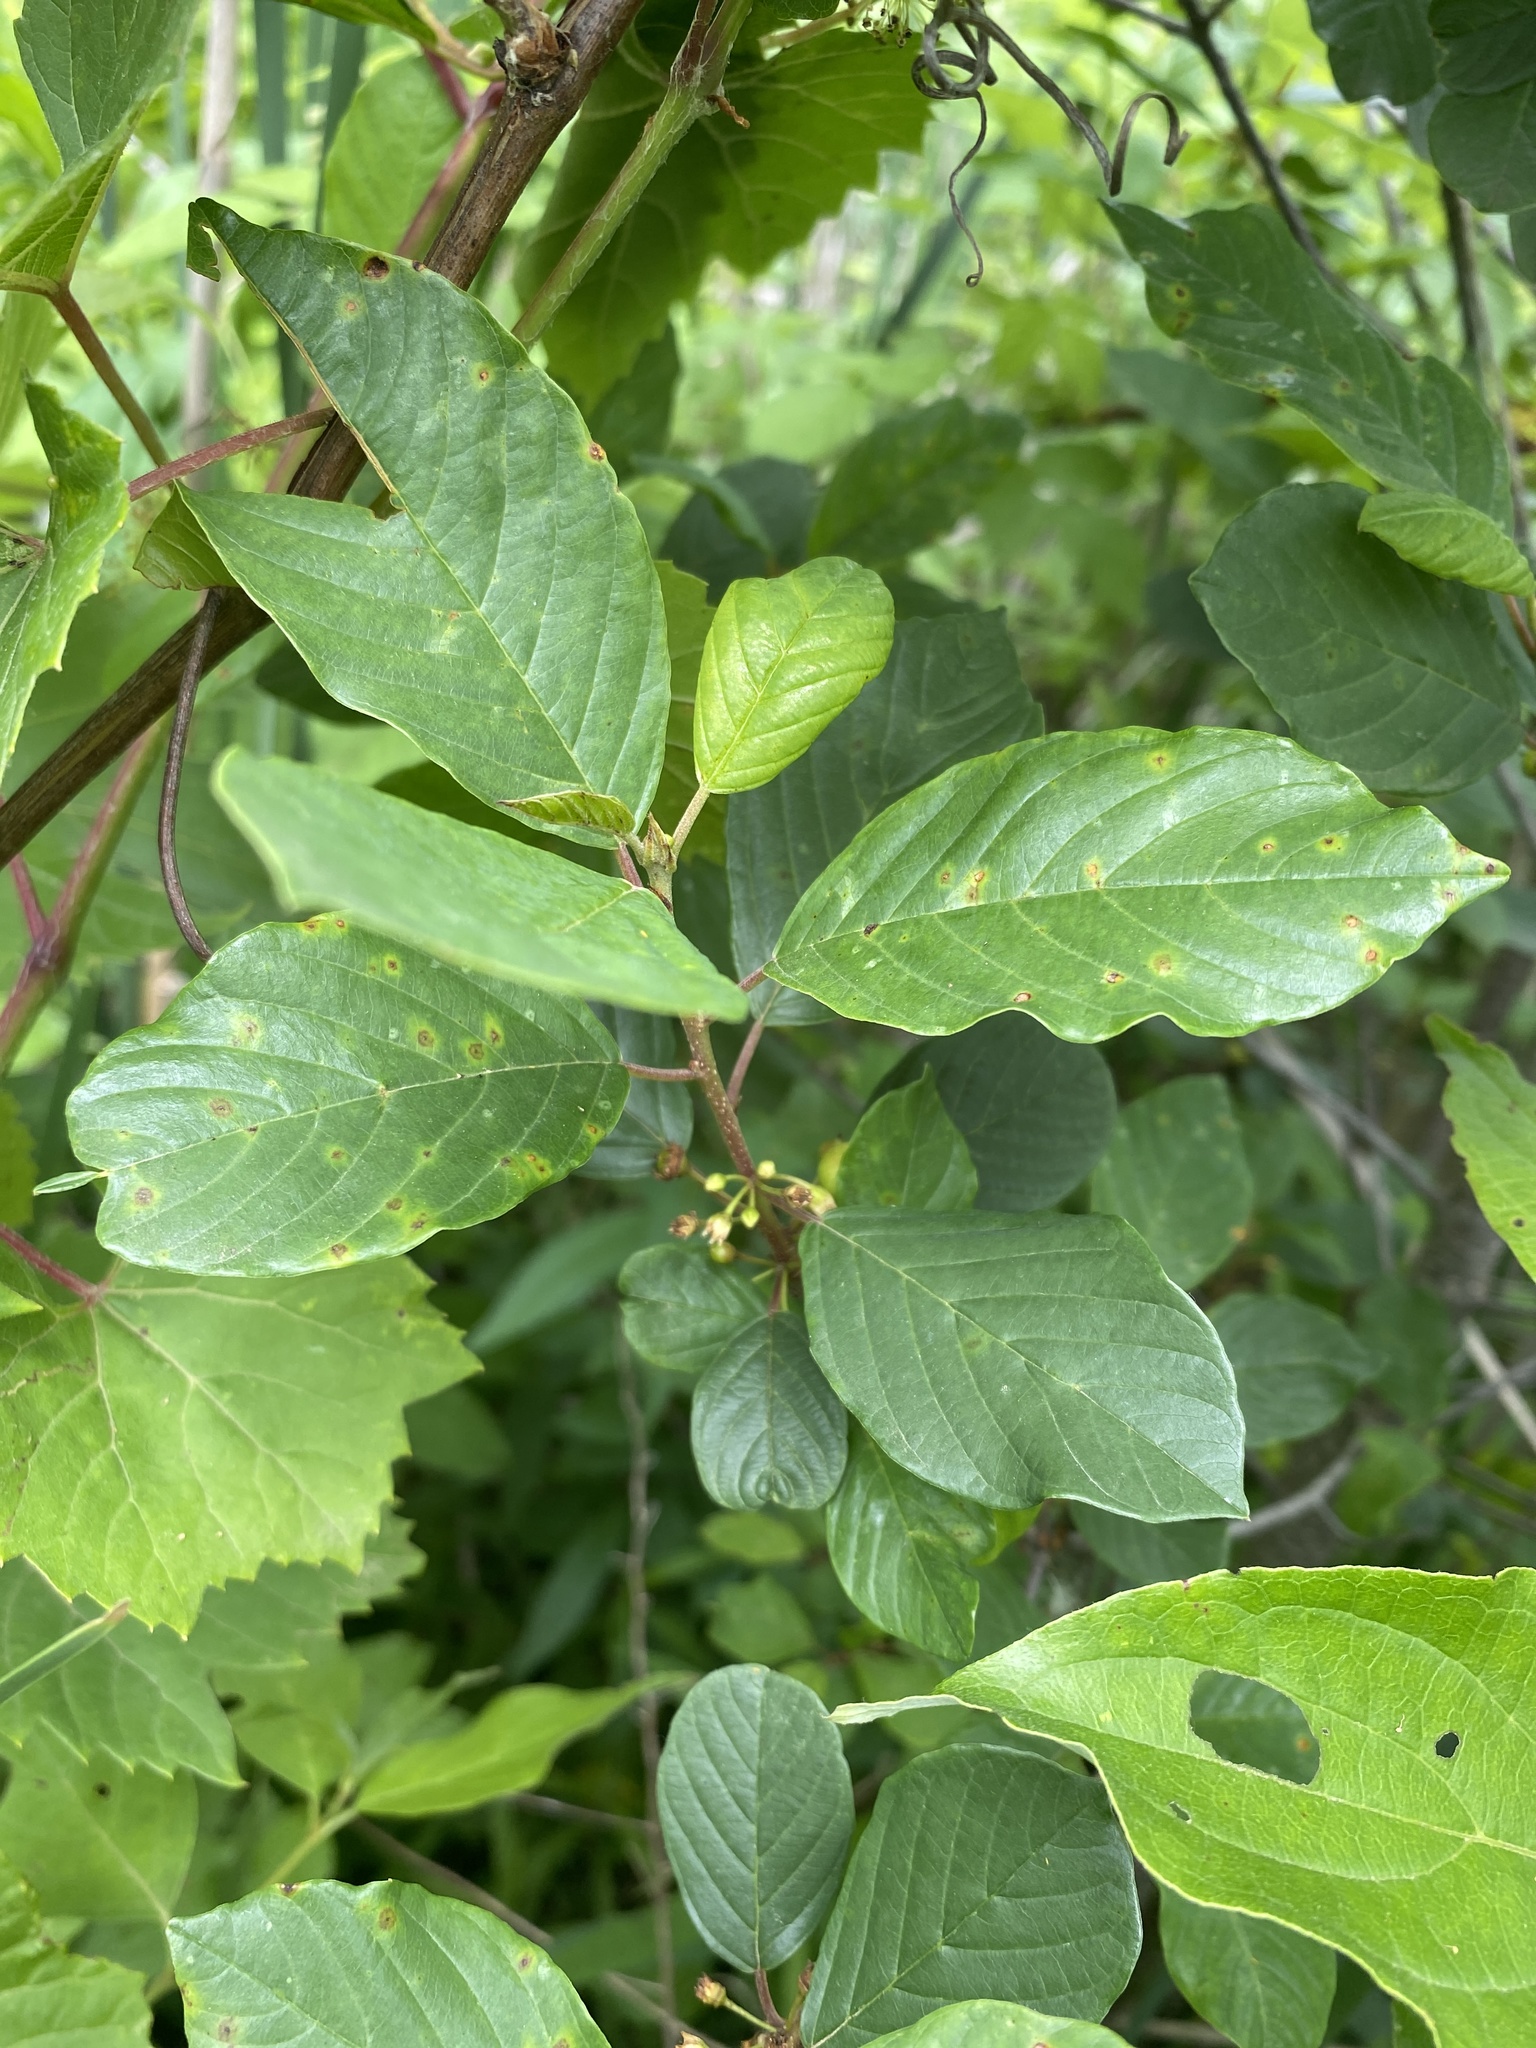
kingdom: Plantae
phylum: Tracheophyta
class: Magnoliopsida
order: Rosales
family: Rhamnaceae
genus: Frangula
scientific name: Frangula alnus
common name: Alder buckthorn
